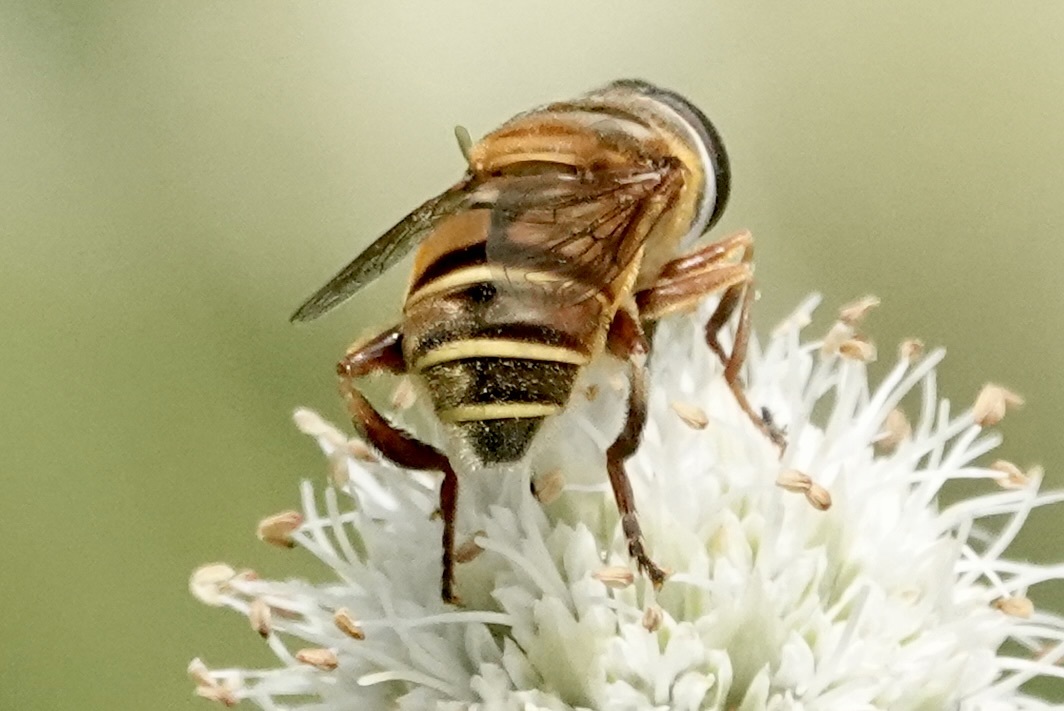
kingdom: Animalia
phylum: Arthropoda
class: Insecta
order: Diptera
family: Syrphidae
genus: Palpada
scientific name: Palpada vinetorum
